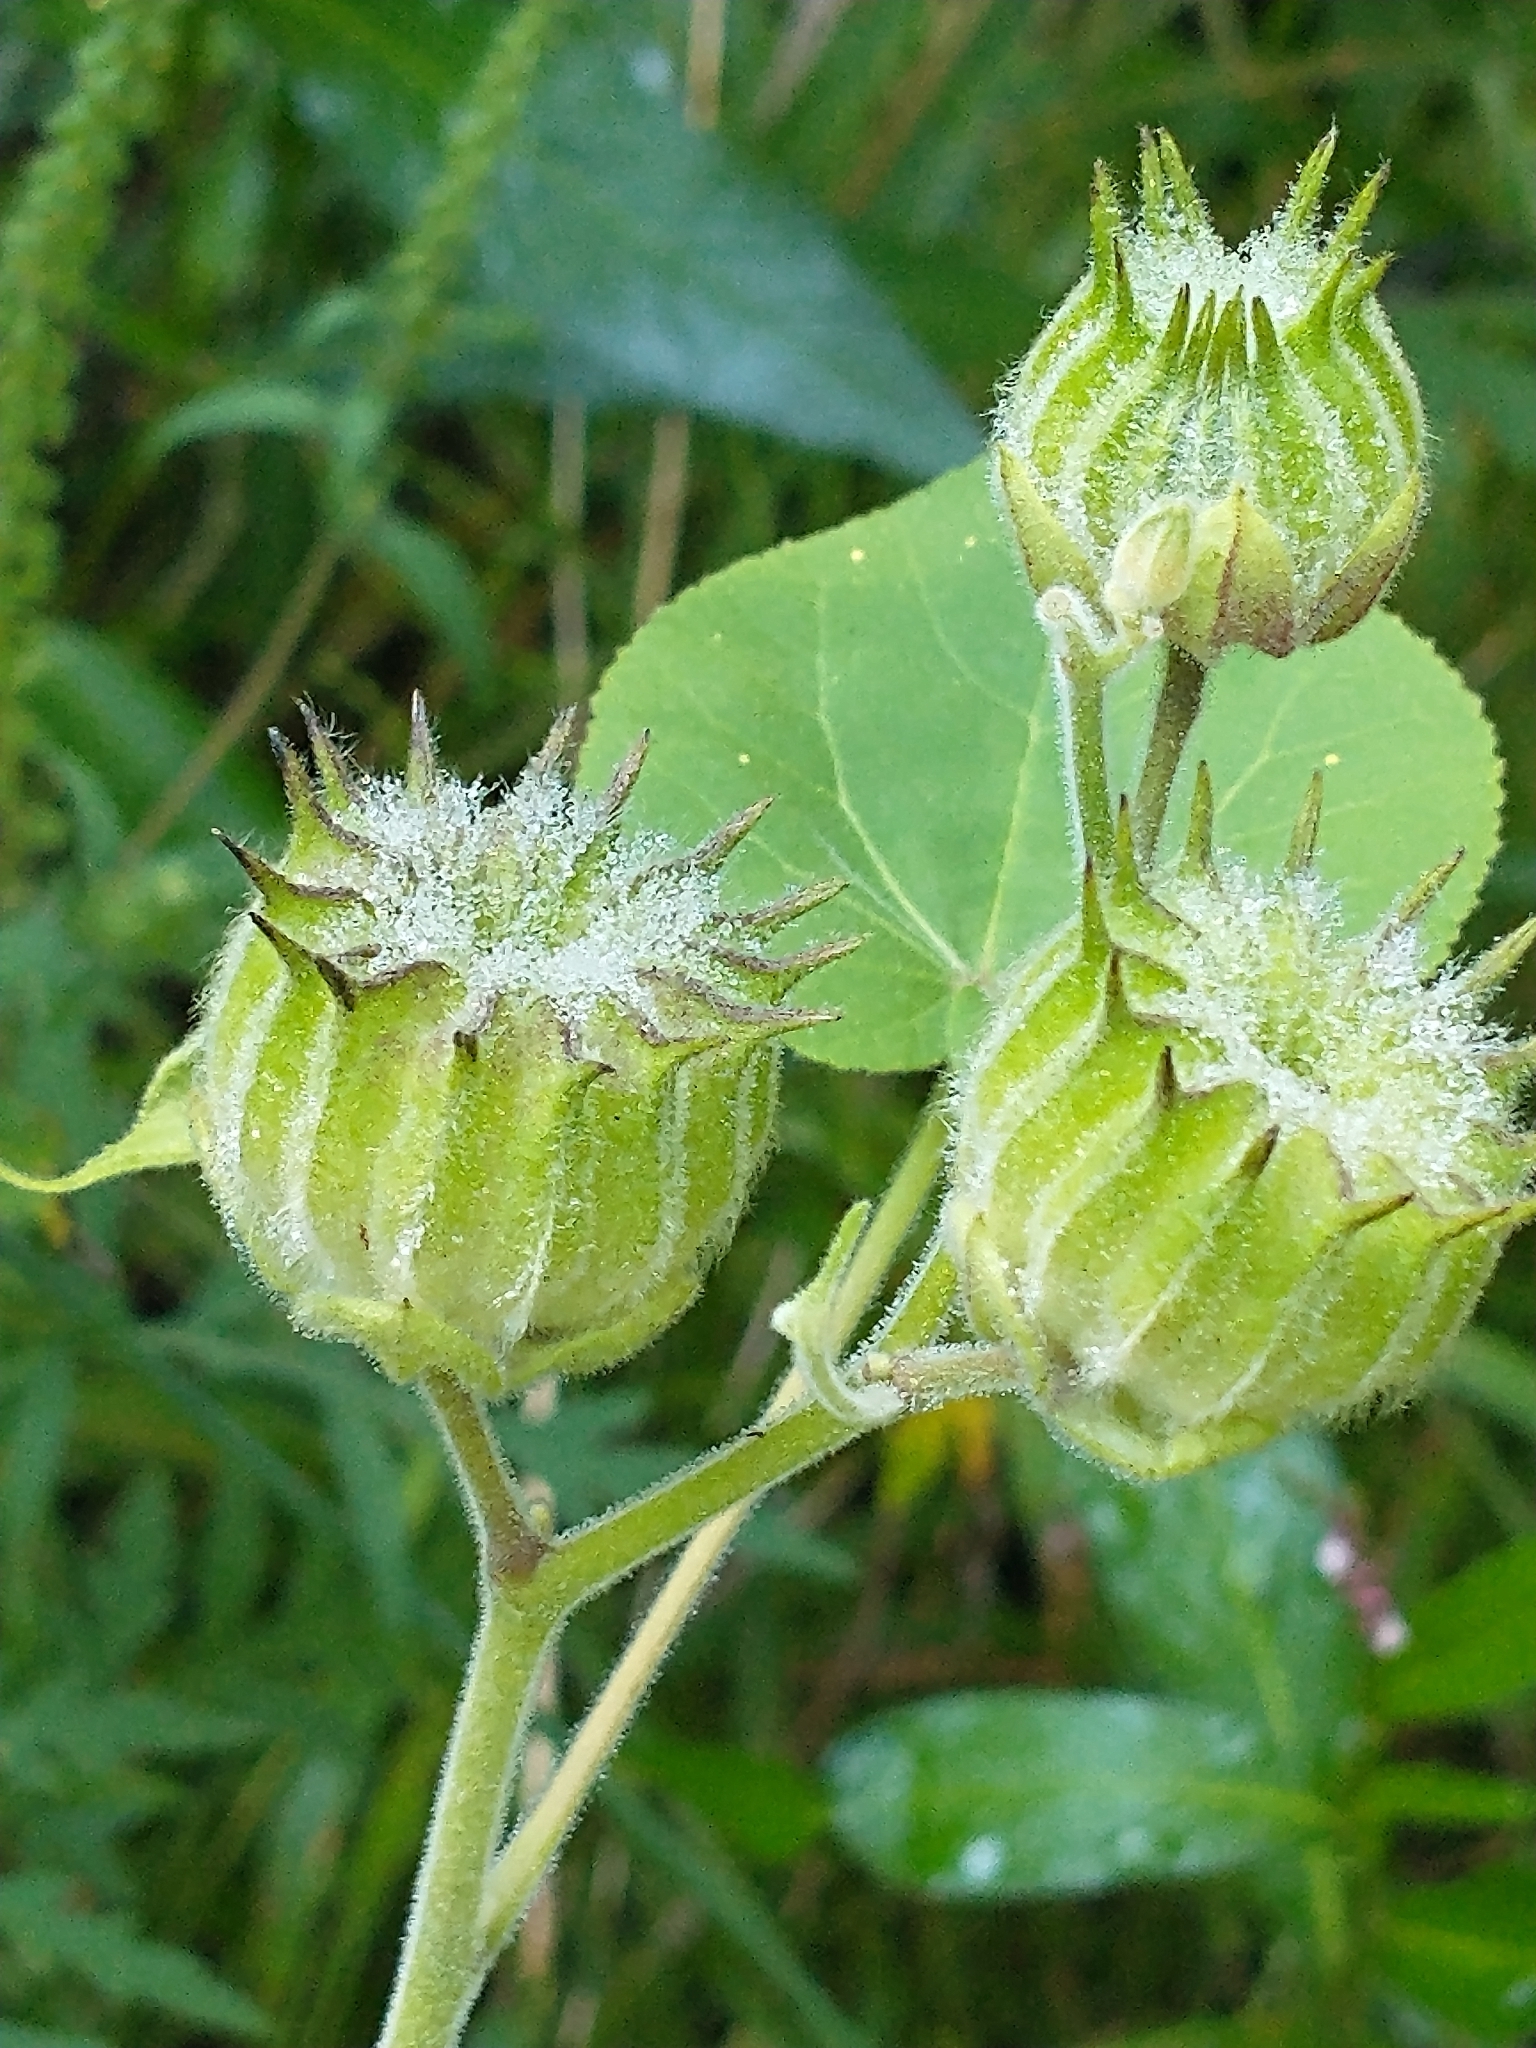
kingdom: Plantae
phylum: Tracheophyta
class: Magnoliopsida
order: Malvales
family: Malvaceae
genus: Abutilon
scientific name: Abutilon theophrasti
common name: Velvetleaf
